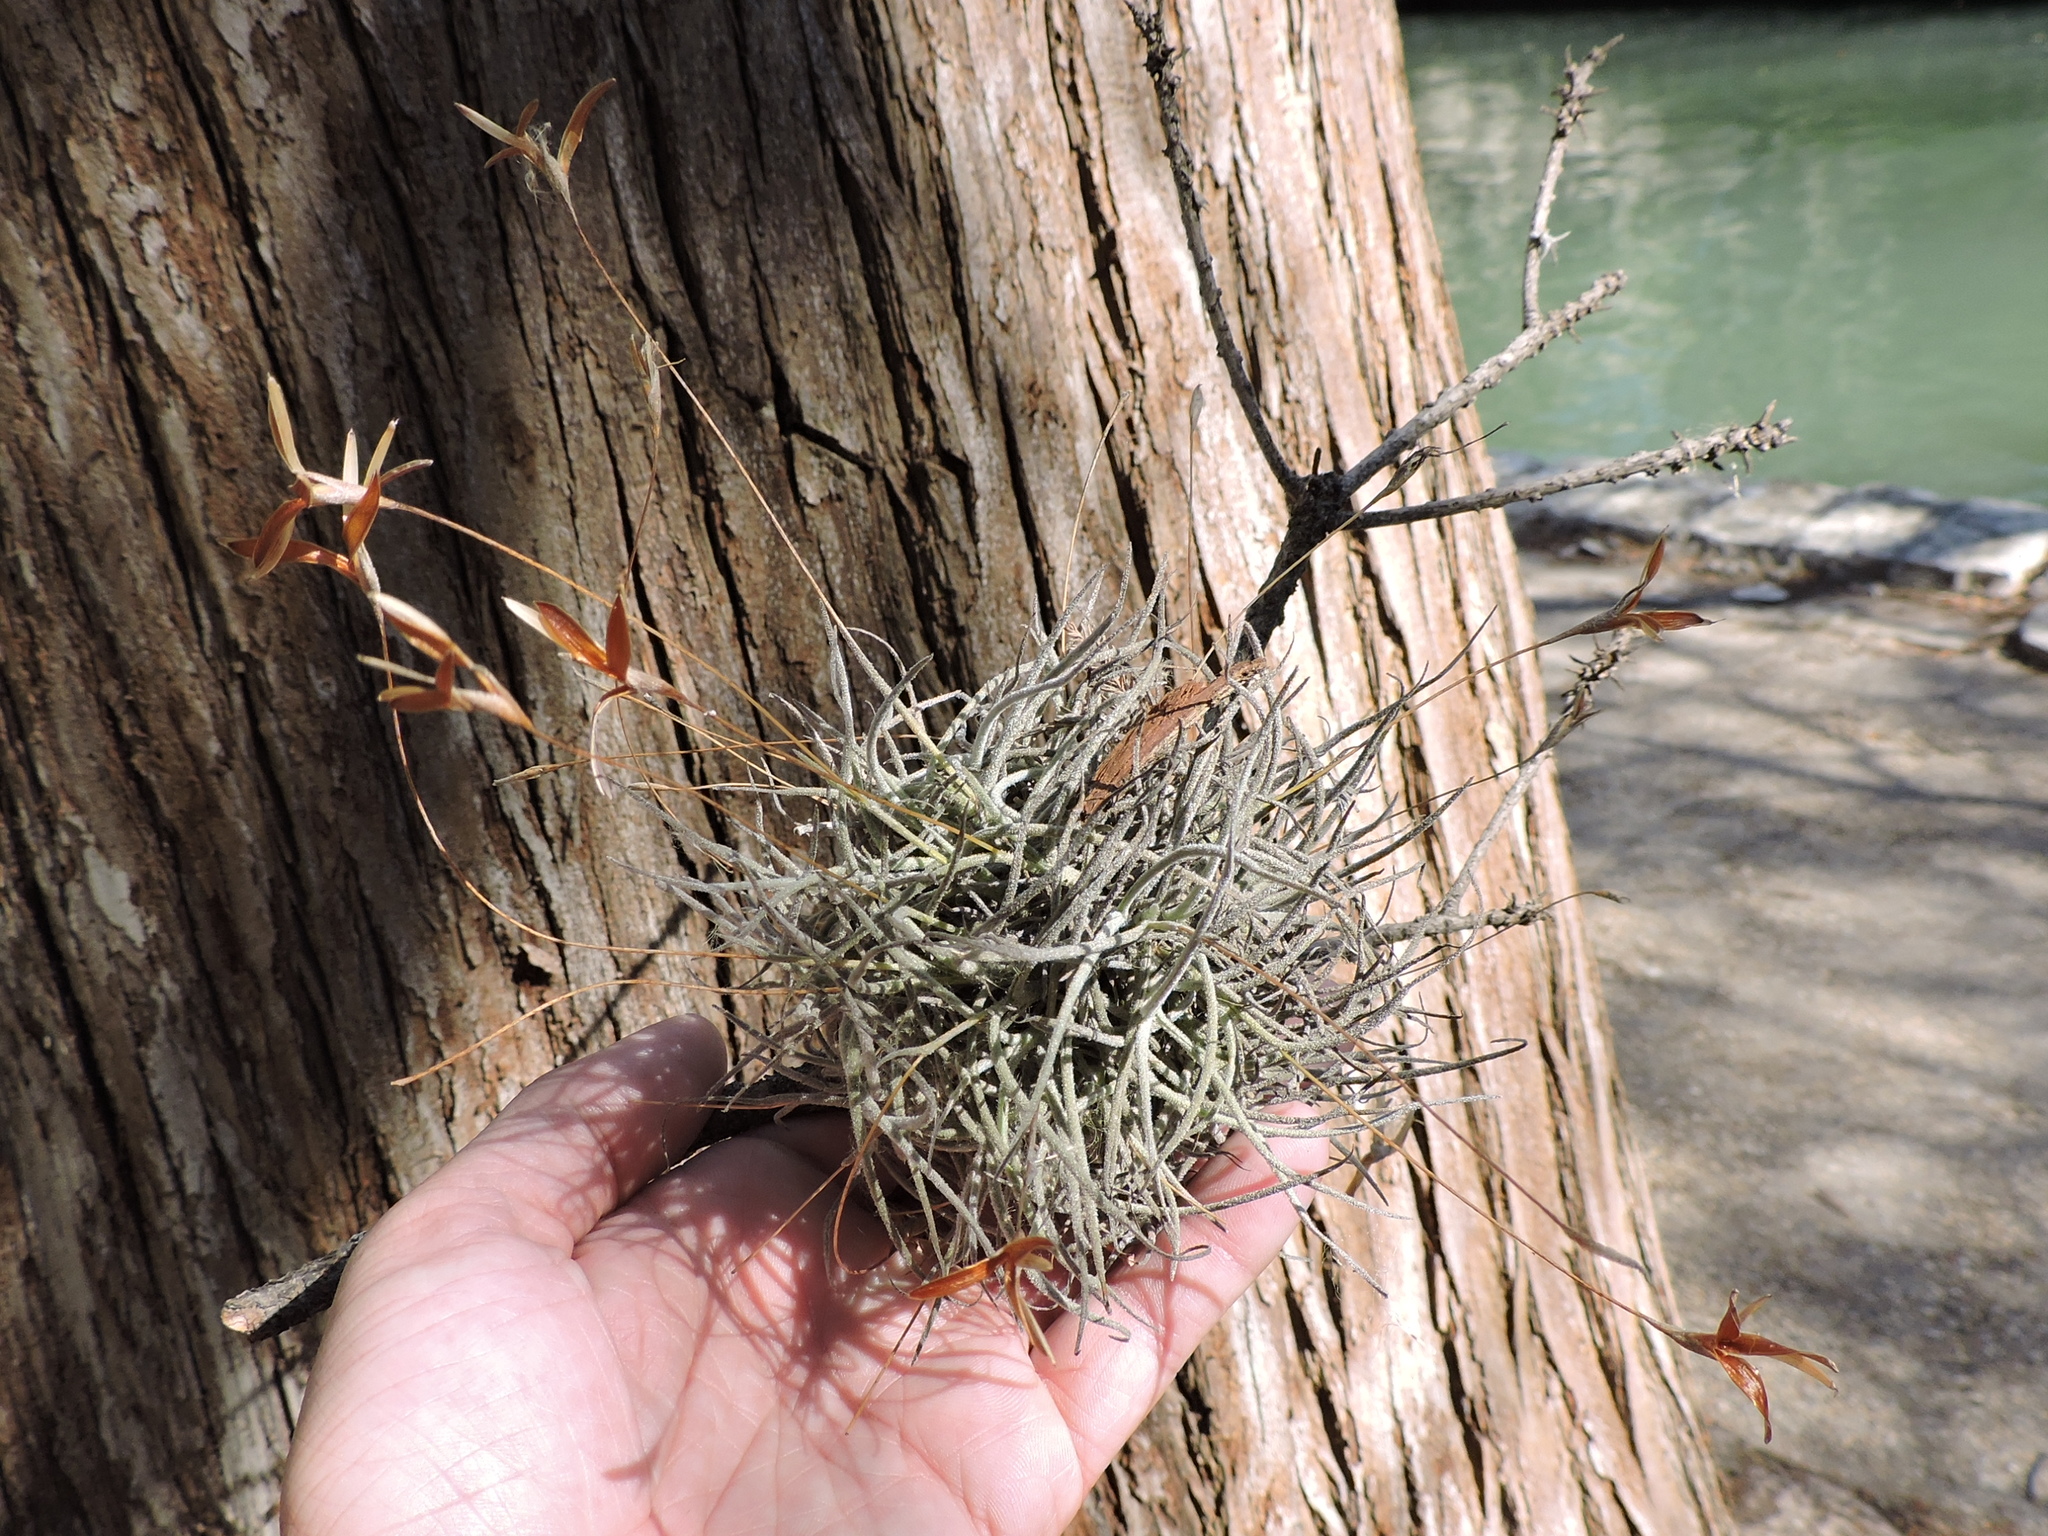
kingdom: Plantae
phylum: Tracheophyta
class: Liliopsida
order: Poales
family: Bromeliaceae
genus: Tillandsia
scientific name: Tillandsia recurvata
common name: Small ballmoss
